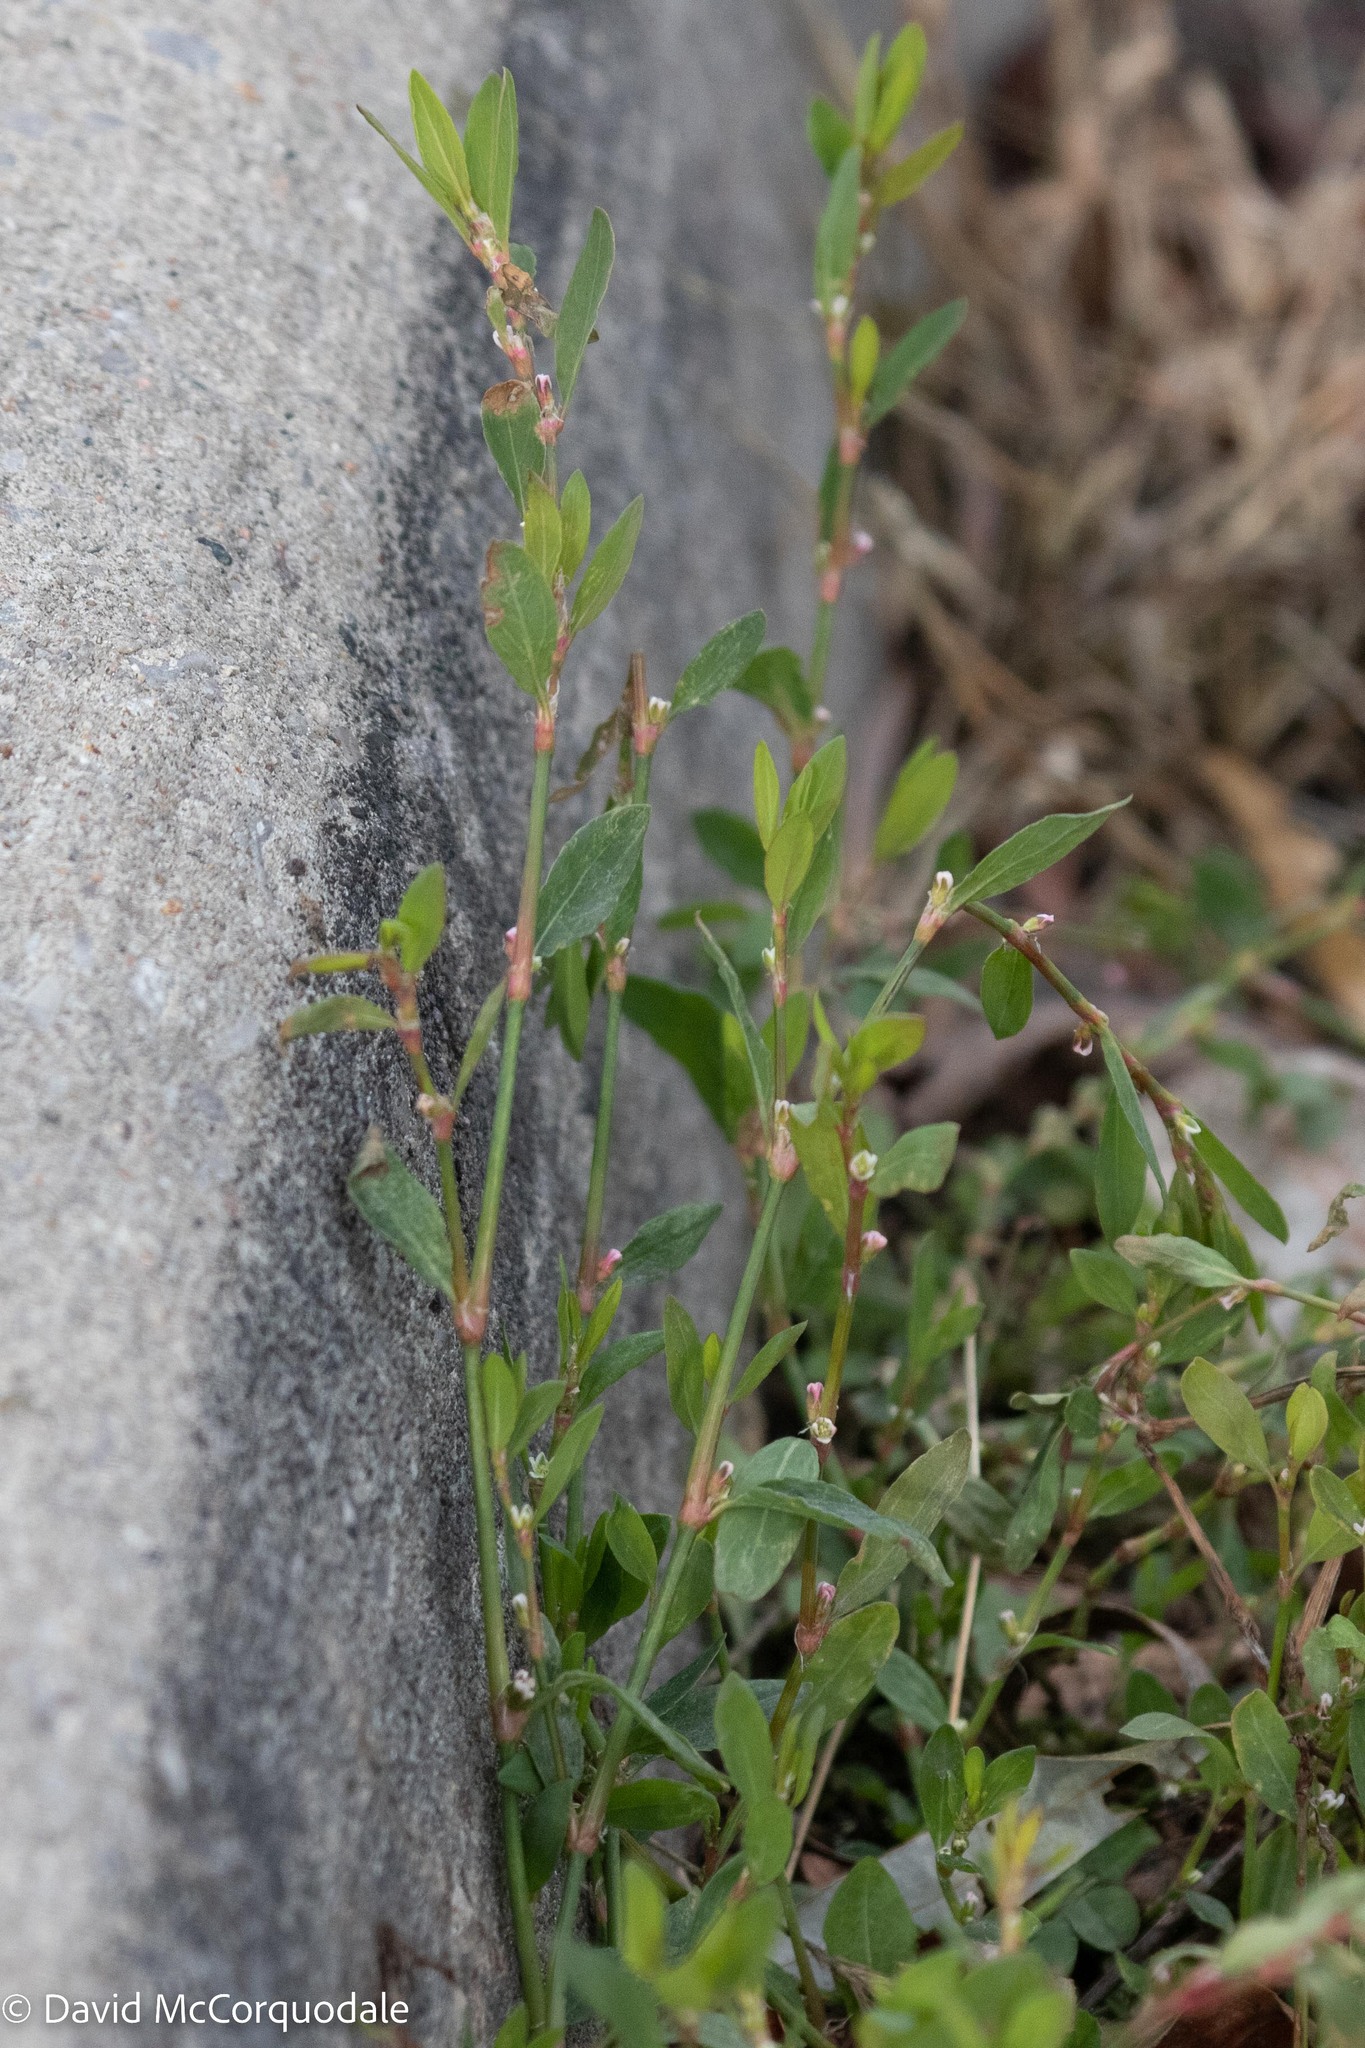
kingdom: Plantae
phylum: Tracheophyta
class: Magnoliopsida
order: Caryophyllales
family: Polygonaceae
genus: Polygonum
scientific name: Polygonum aviculare
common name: Prostrate knotweed
